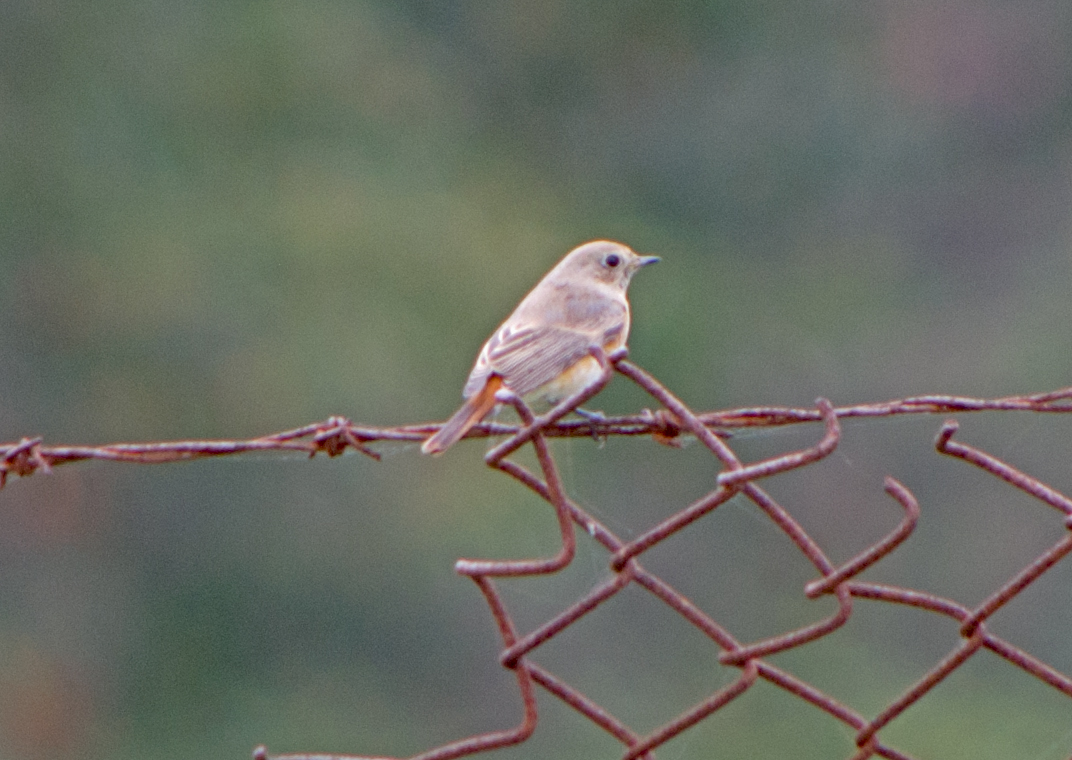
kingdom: Animalia
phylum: Chordata
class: Aves
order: Passeriformes
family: Muscicapidae
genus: Phoenicurus
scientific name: Phoenicurus phoenicurus
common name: Common redstart
